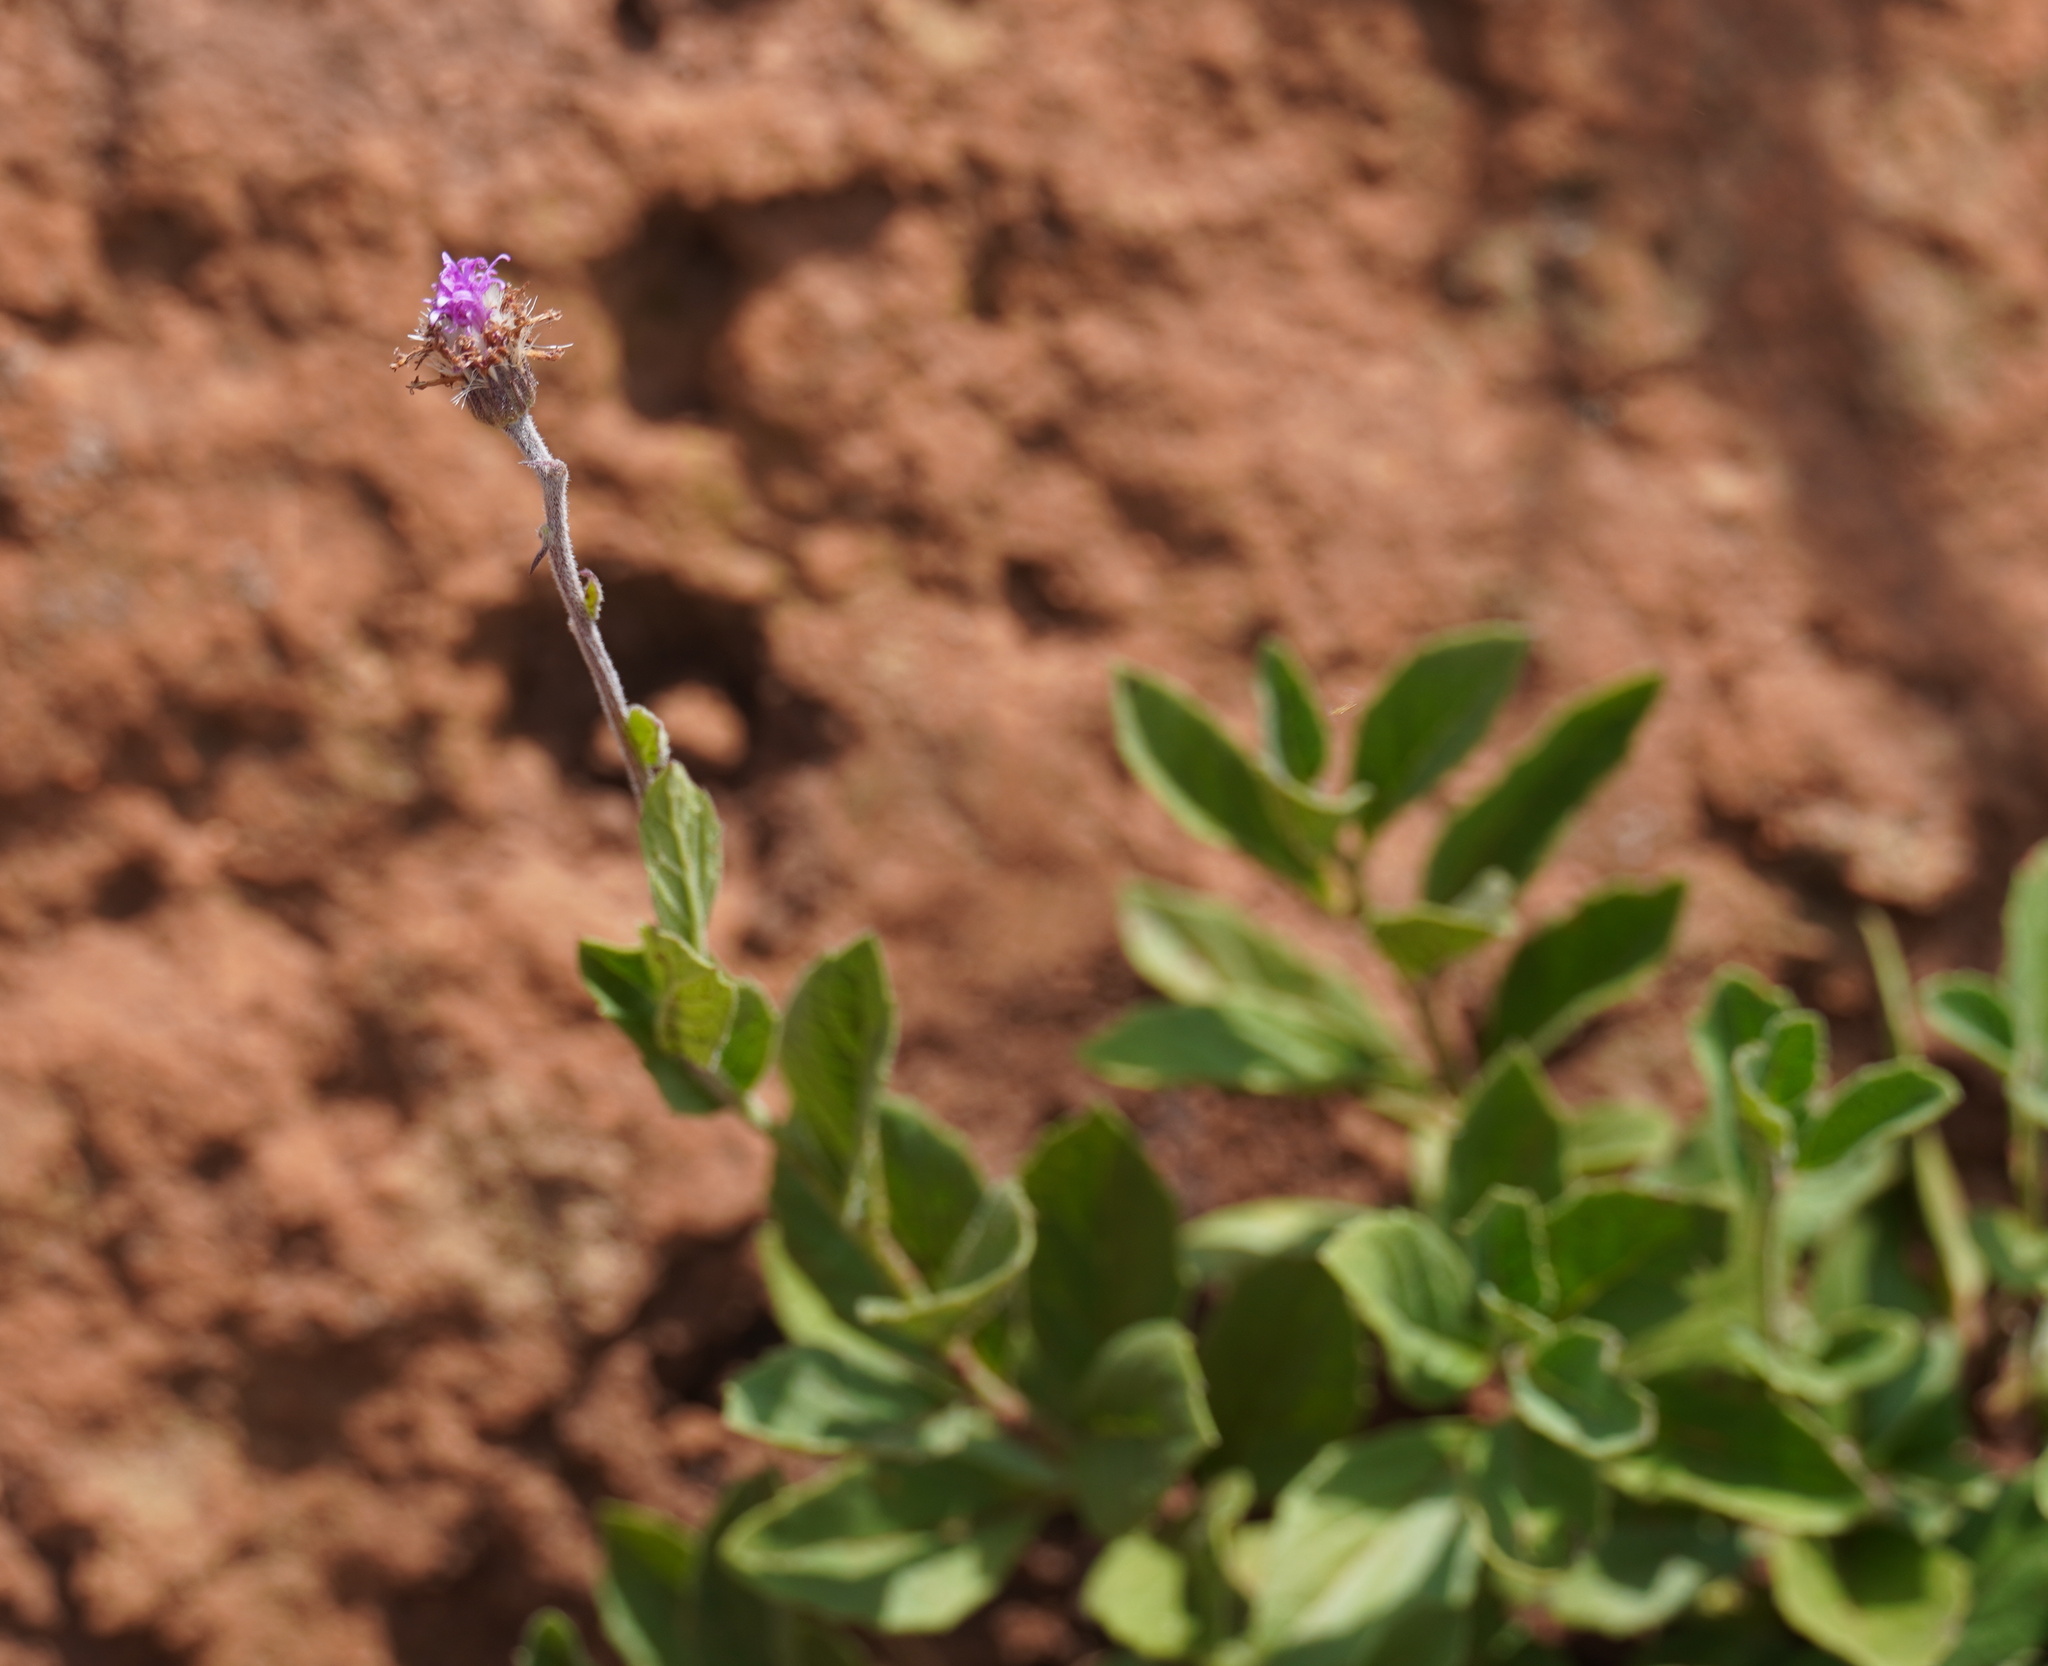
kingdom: Plantae
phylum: Tracheophyta
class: Magnoliopsida
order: Asterales
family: Asteraceae
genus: Hilliardiella
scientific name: Hilliardiella sutherlandii
